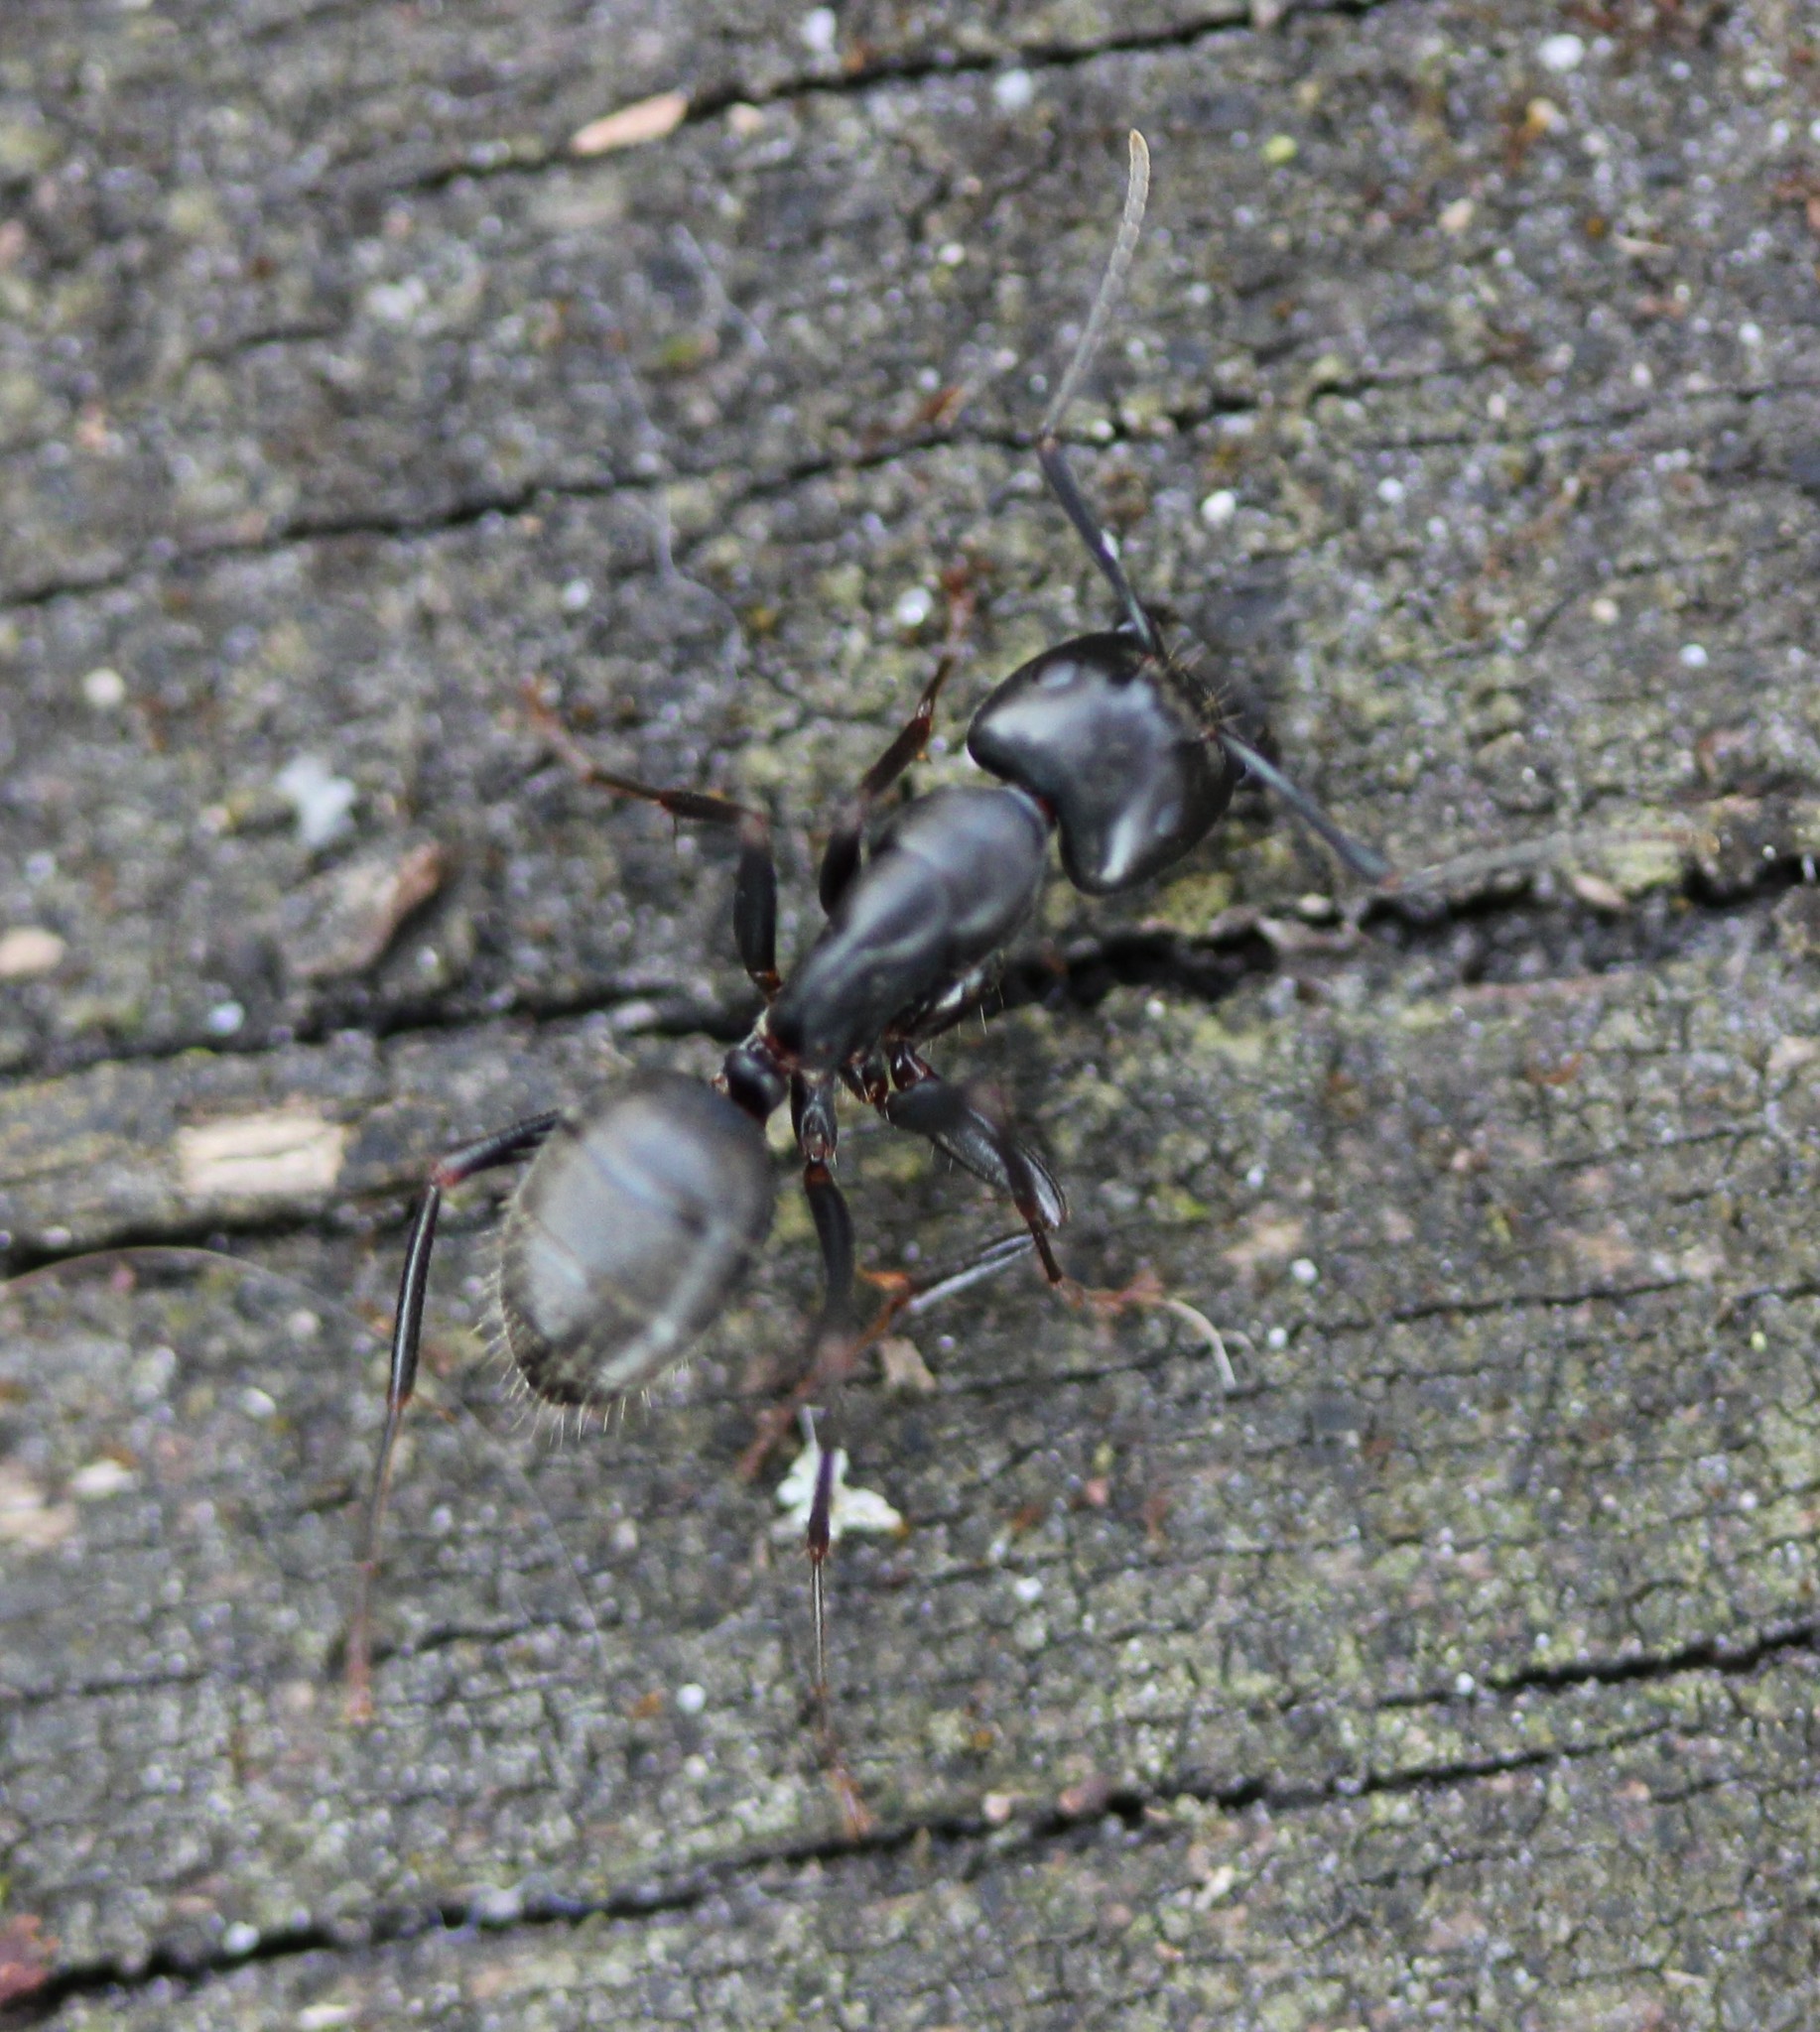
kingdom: Animalia
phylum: Arthropoda
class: Insecta
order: Hymenoptera
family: Formicidae
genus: Camponotus
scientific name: Camponotus pennsylvanicus
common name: Black carpenter ant
